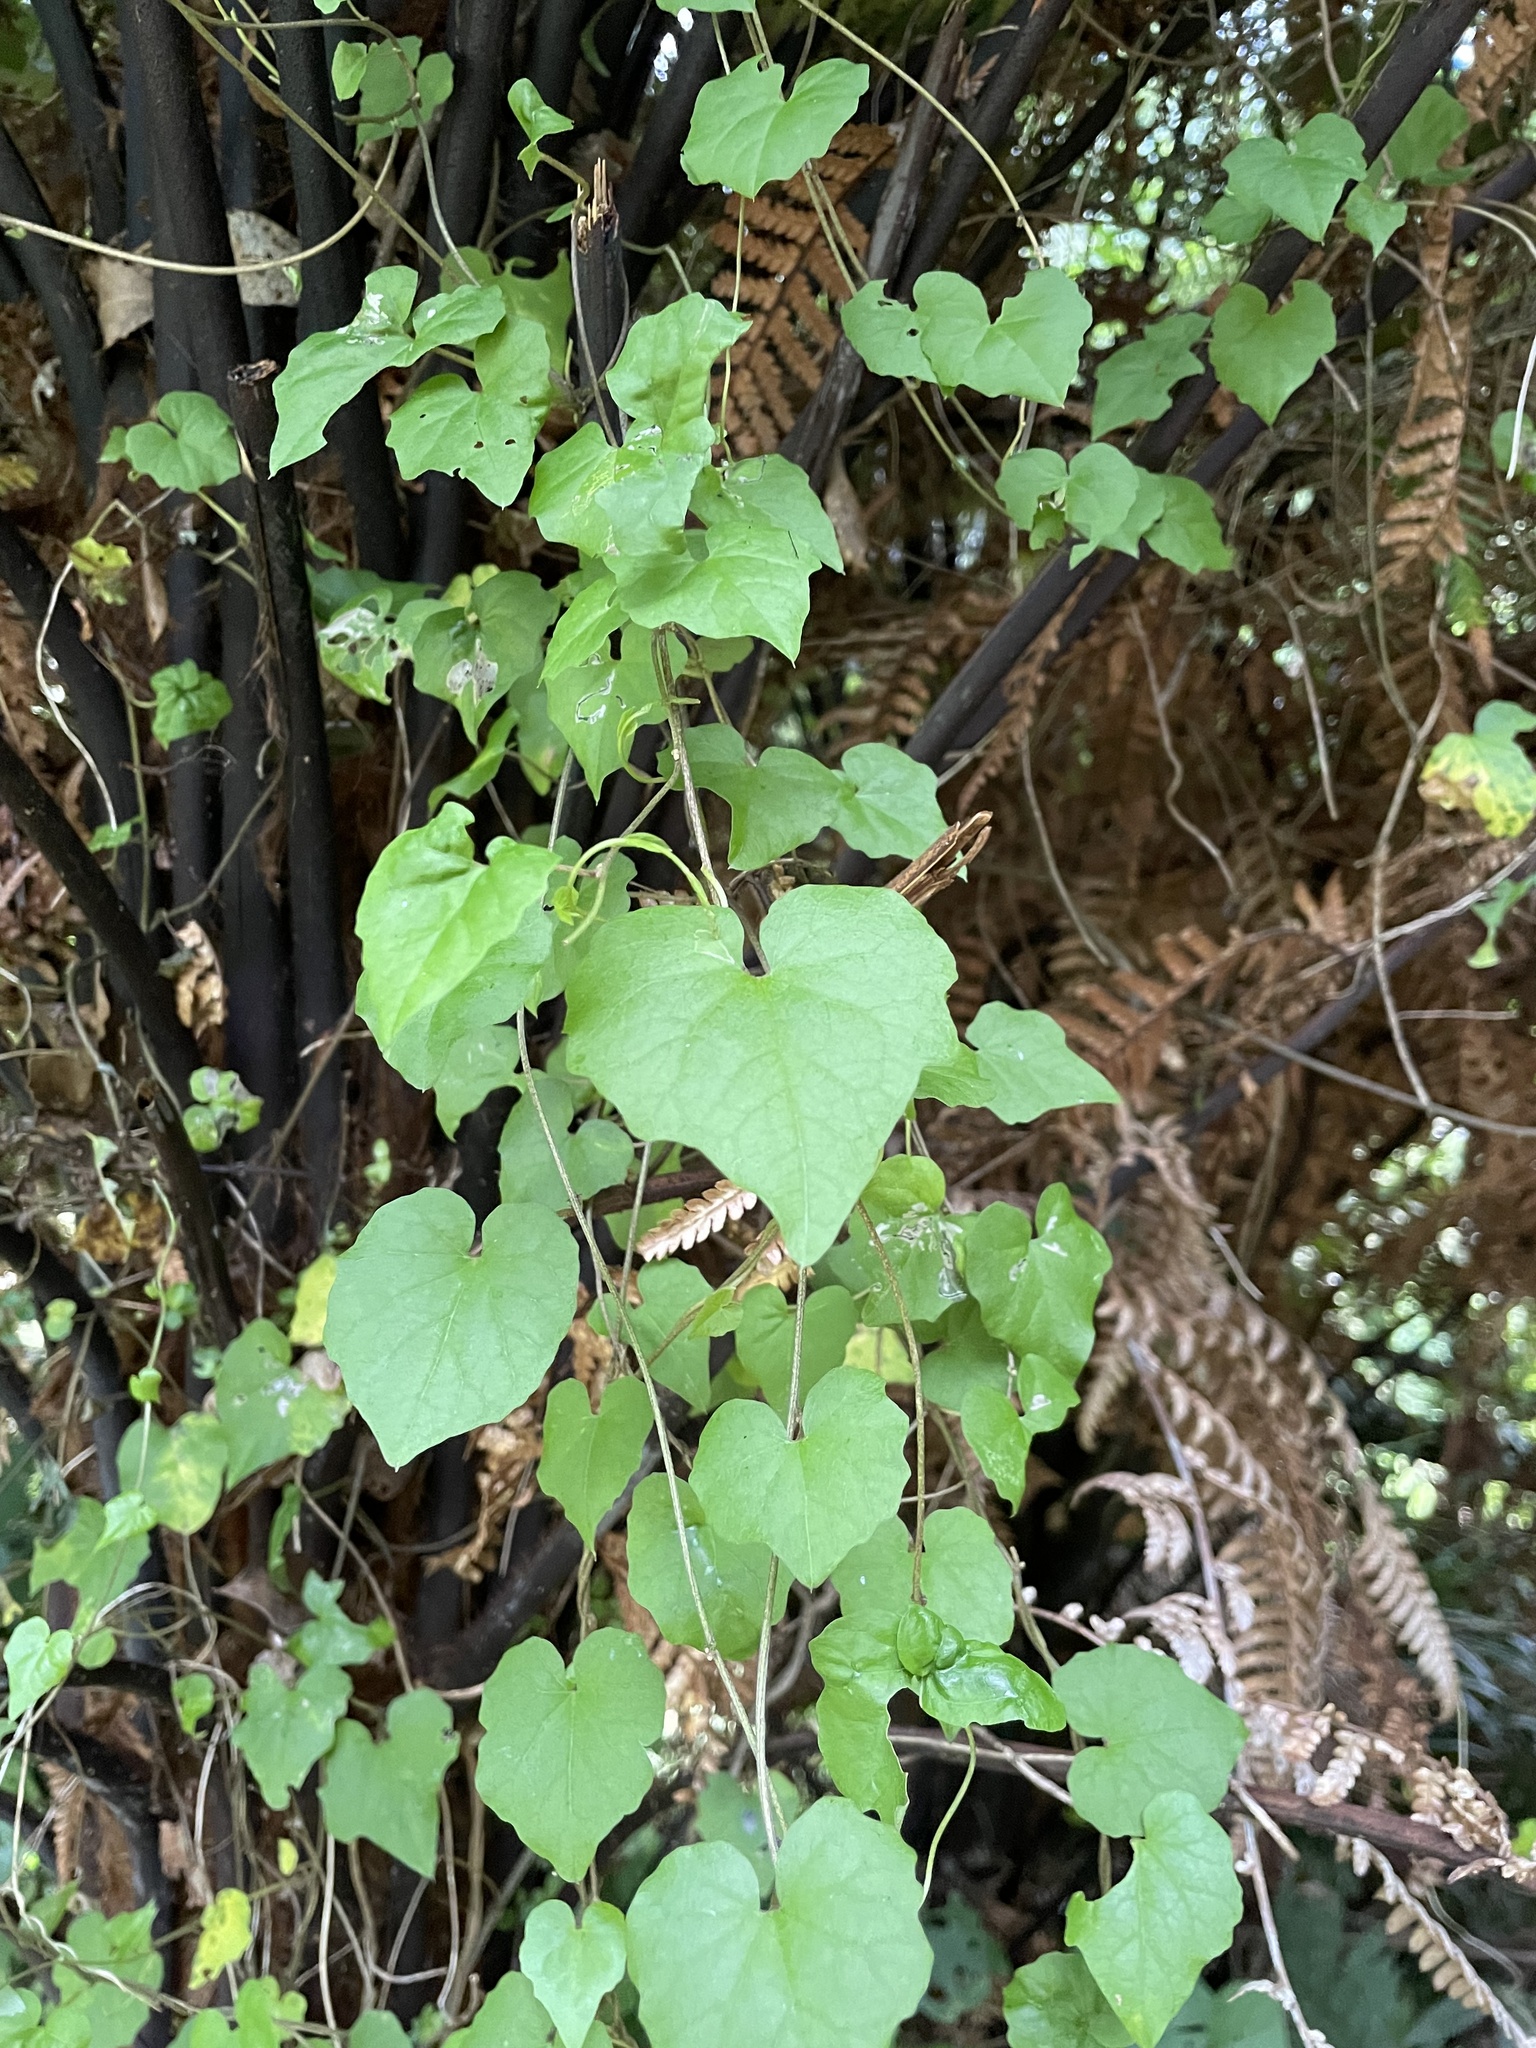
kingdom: Plantae
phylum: Tracheophyta
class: Magnoliopsida
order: Solanales
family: Convolvulaceae
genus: Calystegia
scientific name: Calystegia tuguriorum
